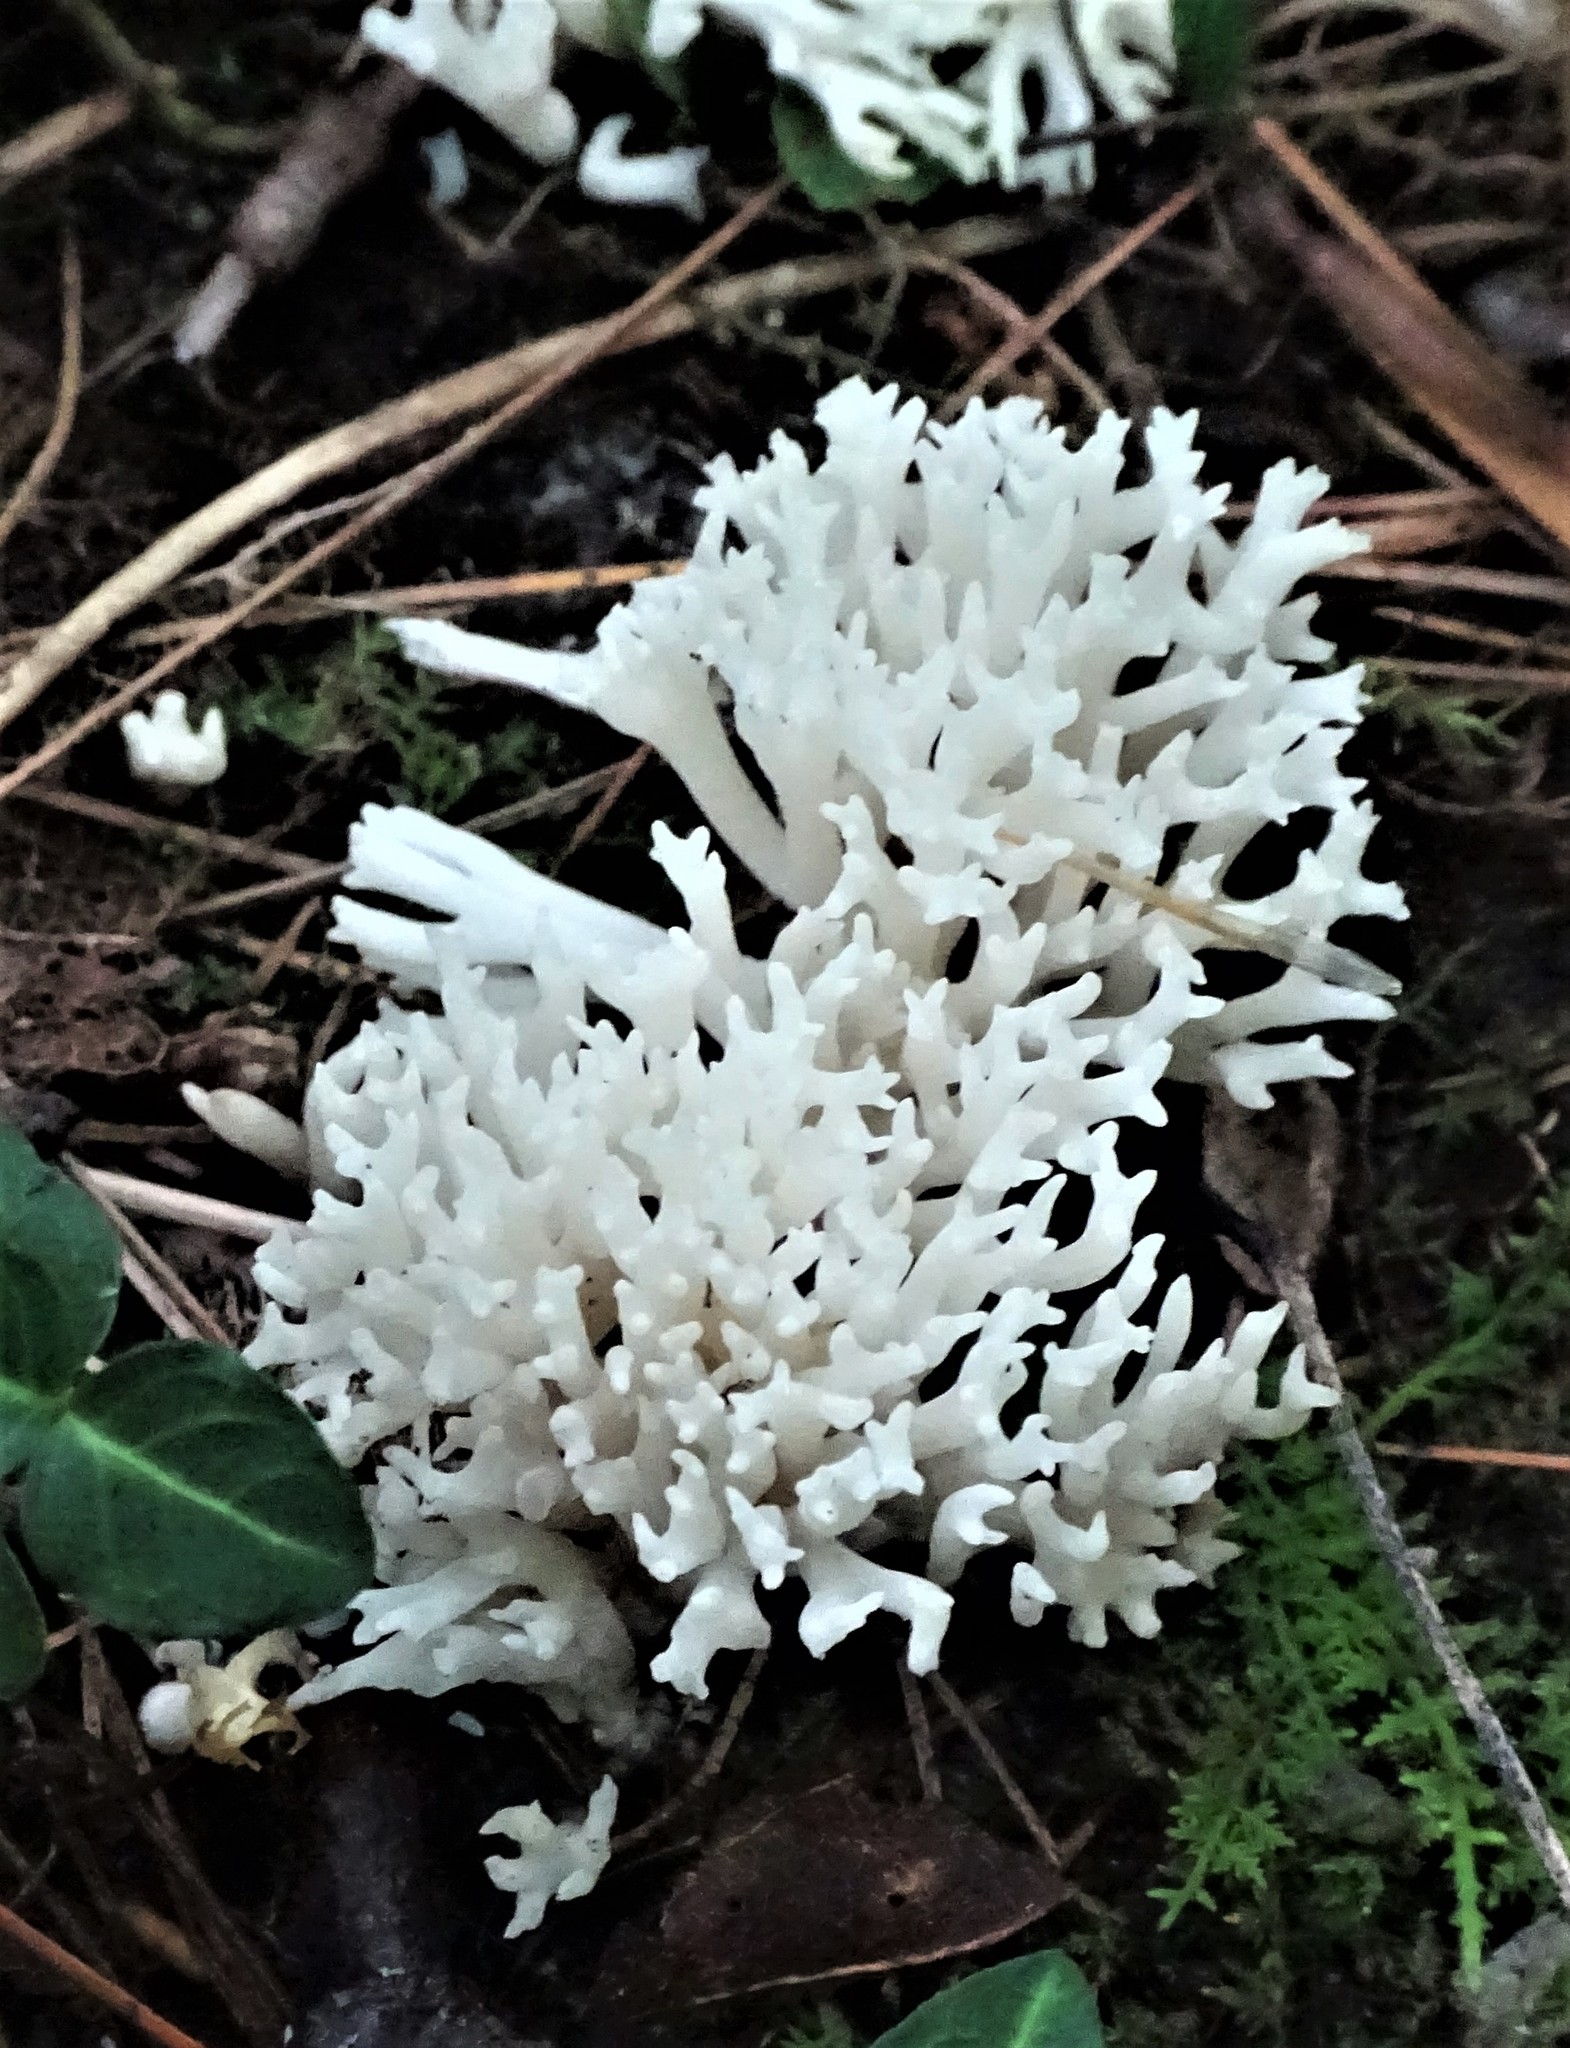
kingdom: Fungi
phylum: Basidiomycota
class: Agaricomycetes
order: Agaricales
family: Clavariaceae
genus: Ramariopsis
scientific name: Ramariopsis kunzei
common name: Ivory coral
